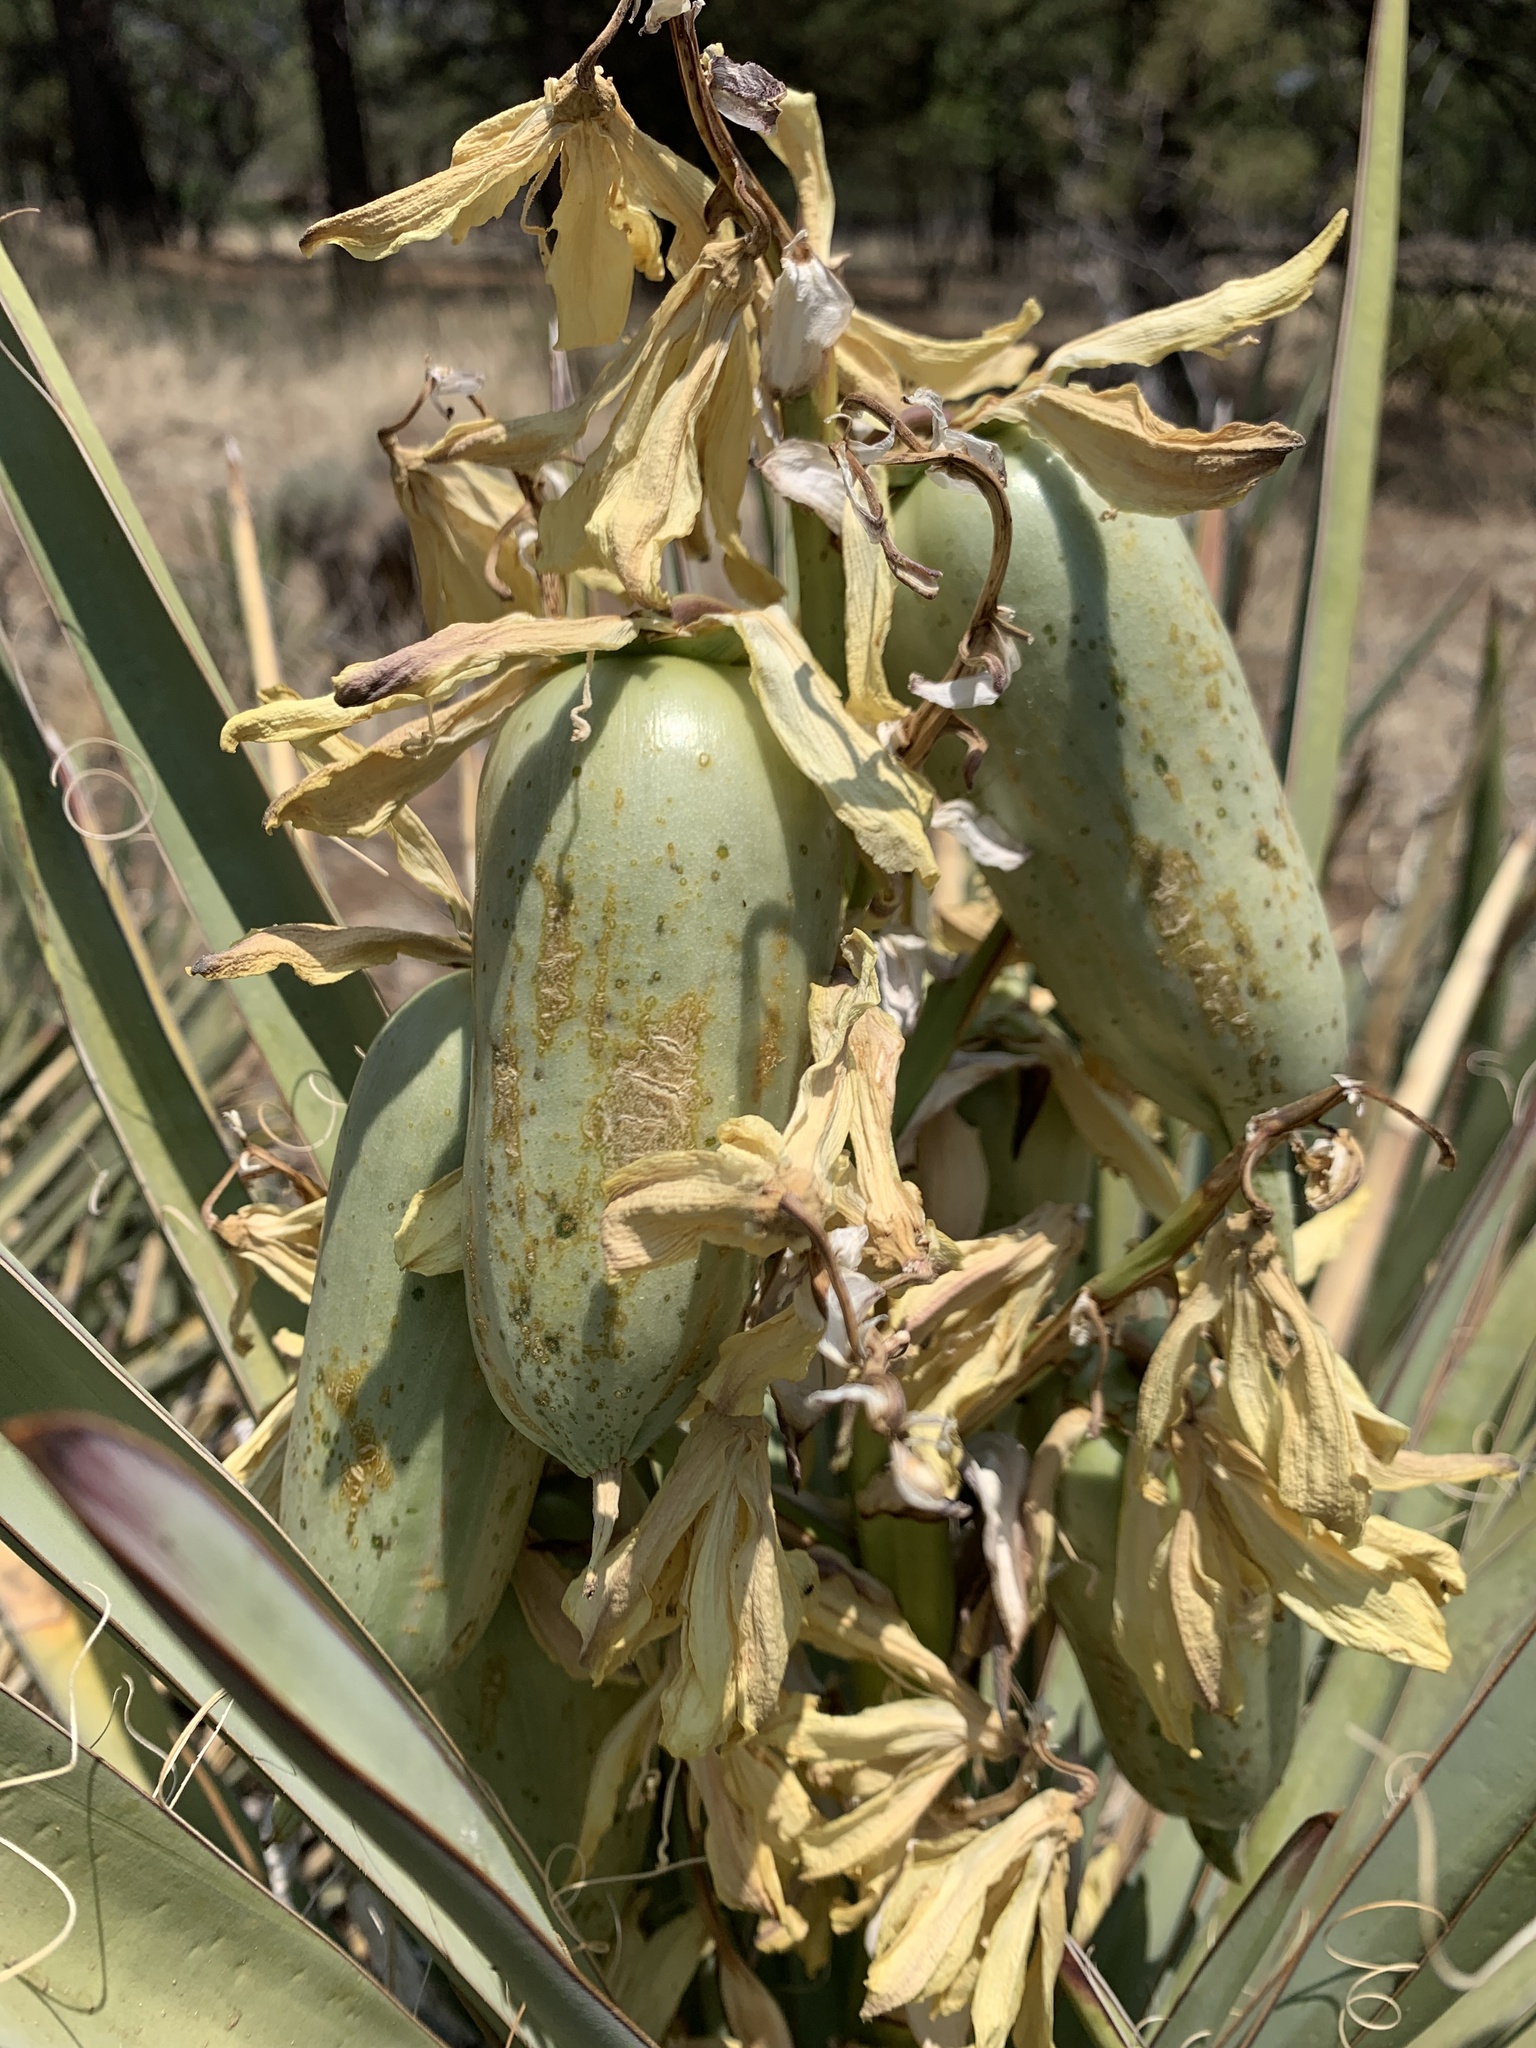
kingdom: Plantae
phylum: Tracheophyta
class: Liliopsida
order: Asparagales
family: Asparagaceae
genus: Yucca
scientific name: Yucca baccata
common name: Banana yucca
